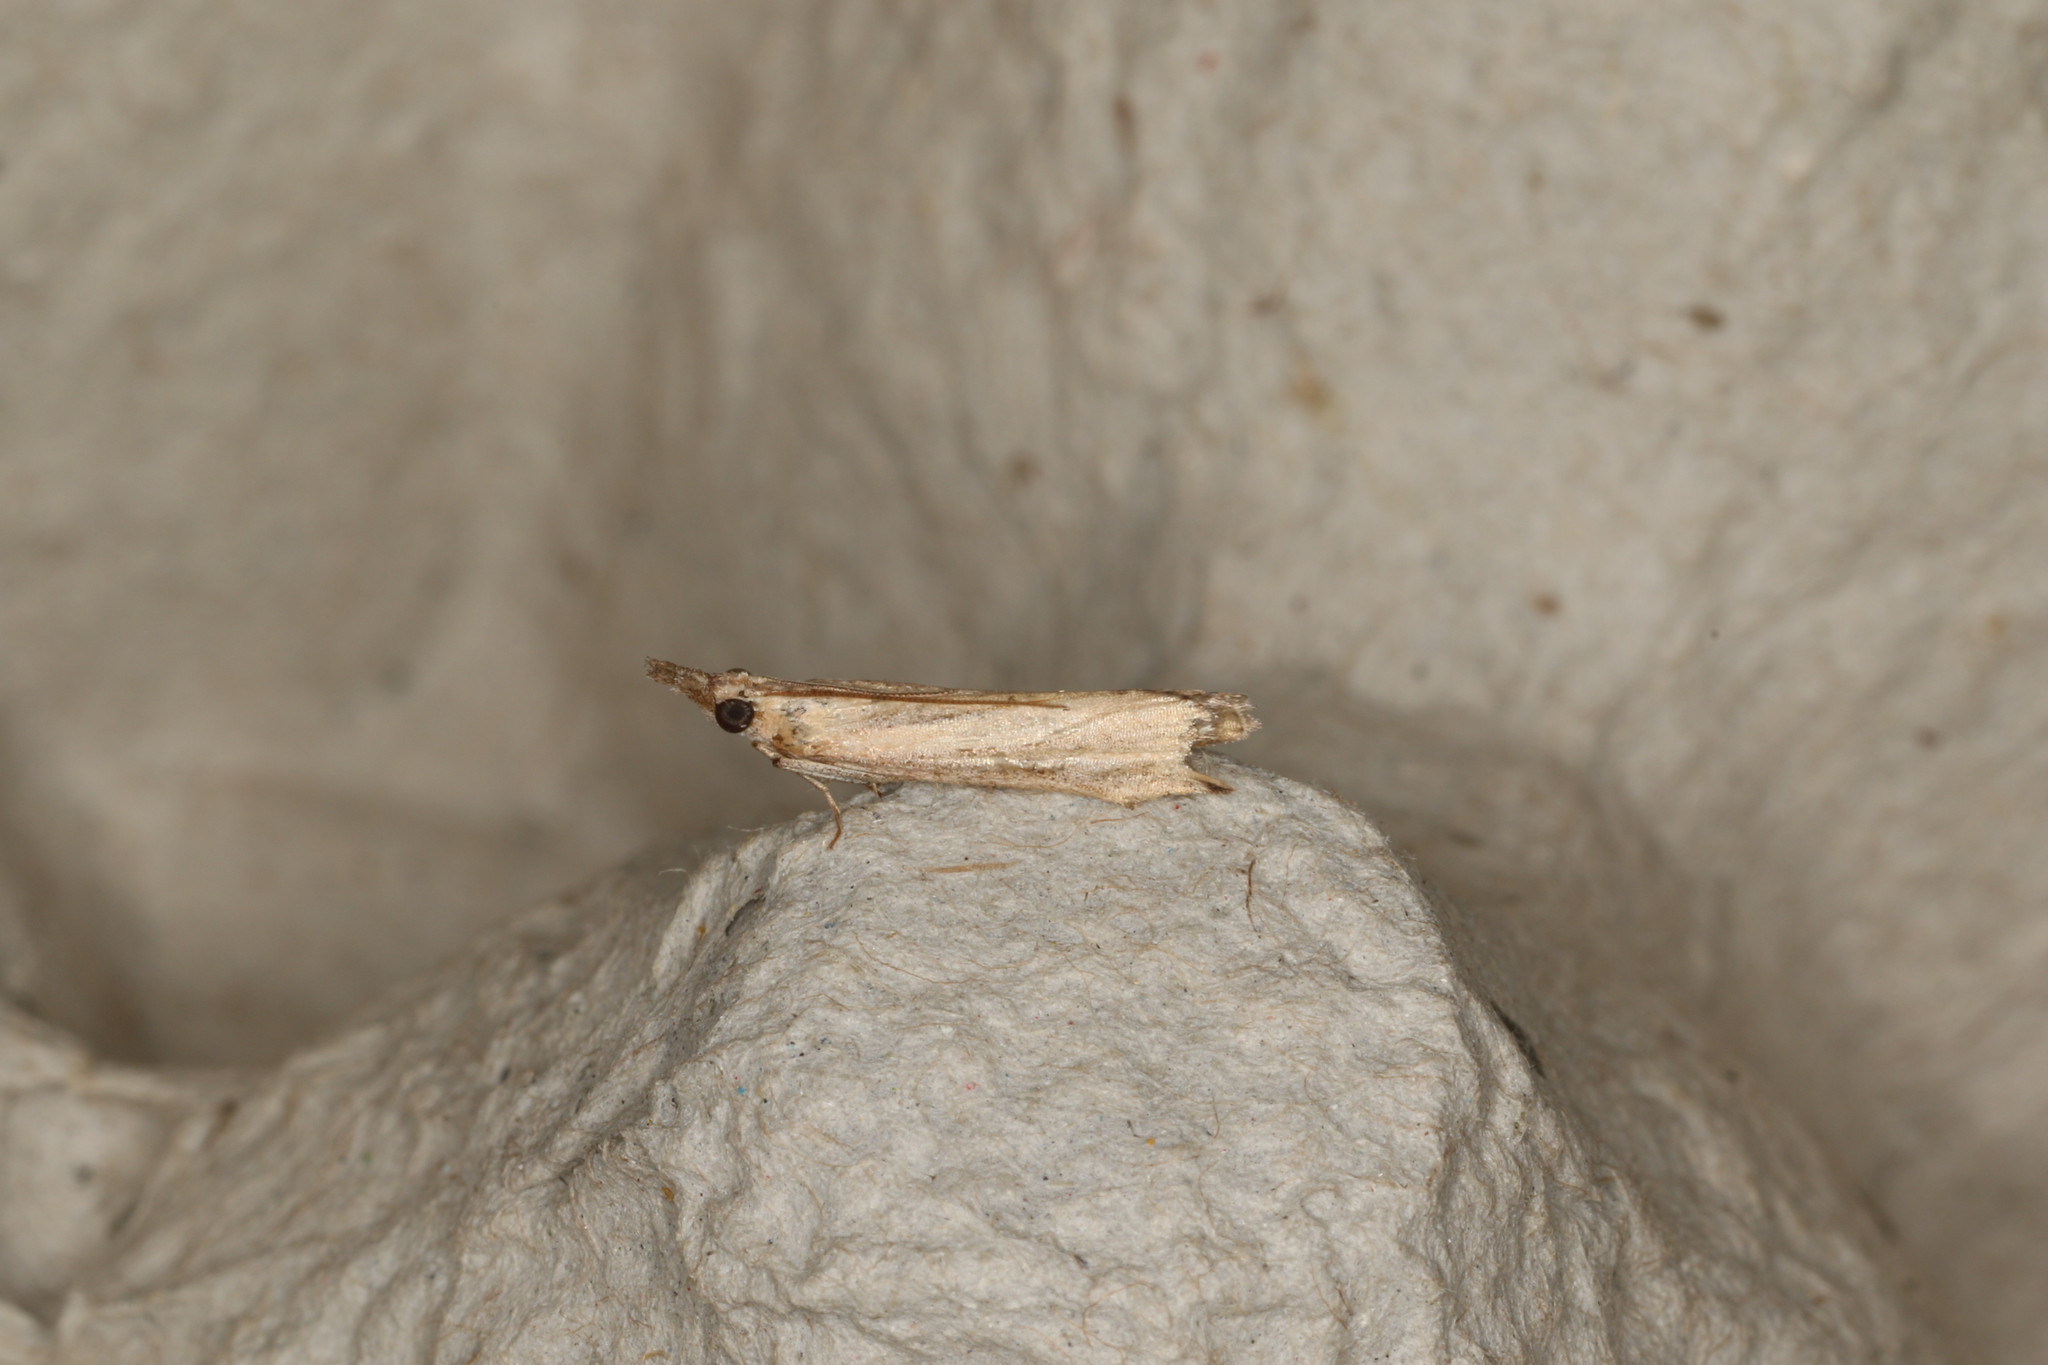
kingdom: Animalia
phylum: Arthropoda
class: Insecta
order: Lepidoptera
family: Crambidae
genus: Ptochostola
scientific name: Ptochostola microphaeellus
